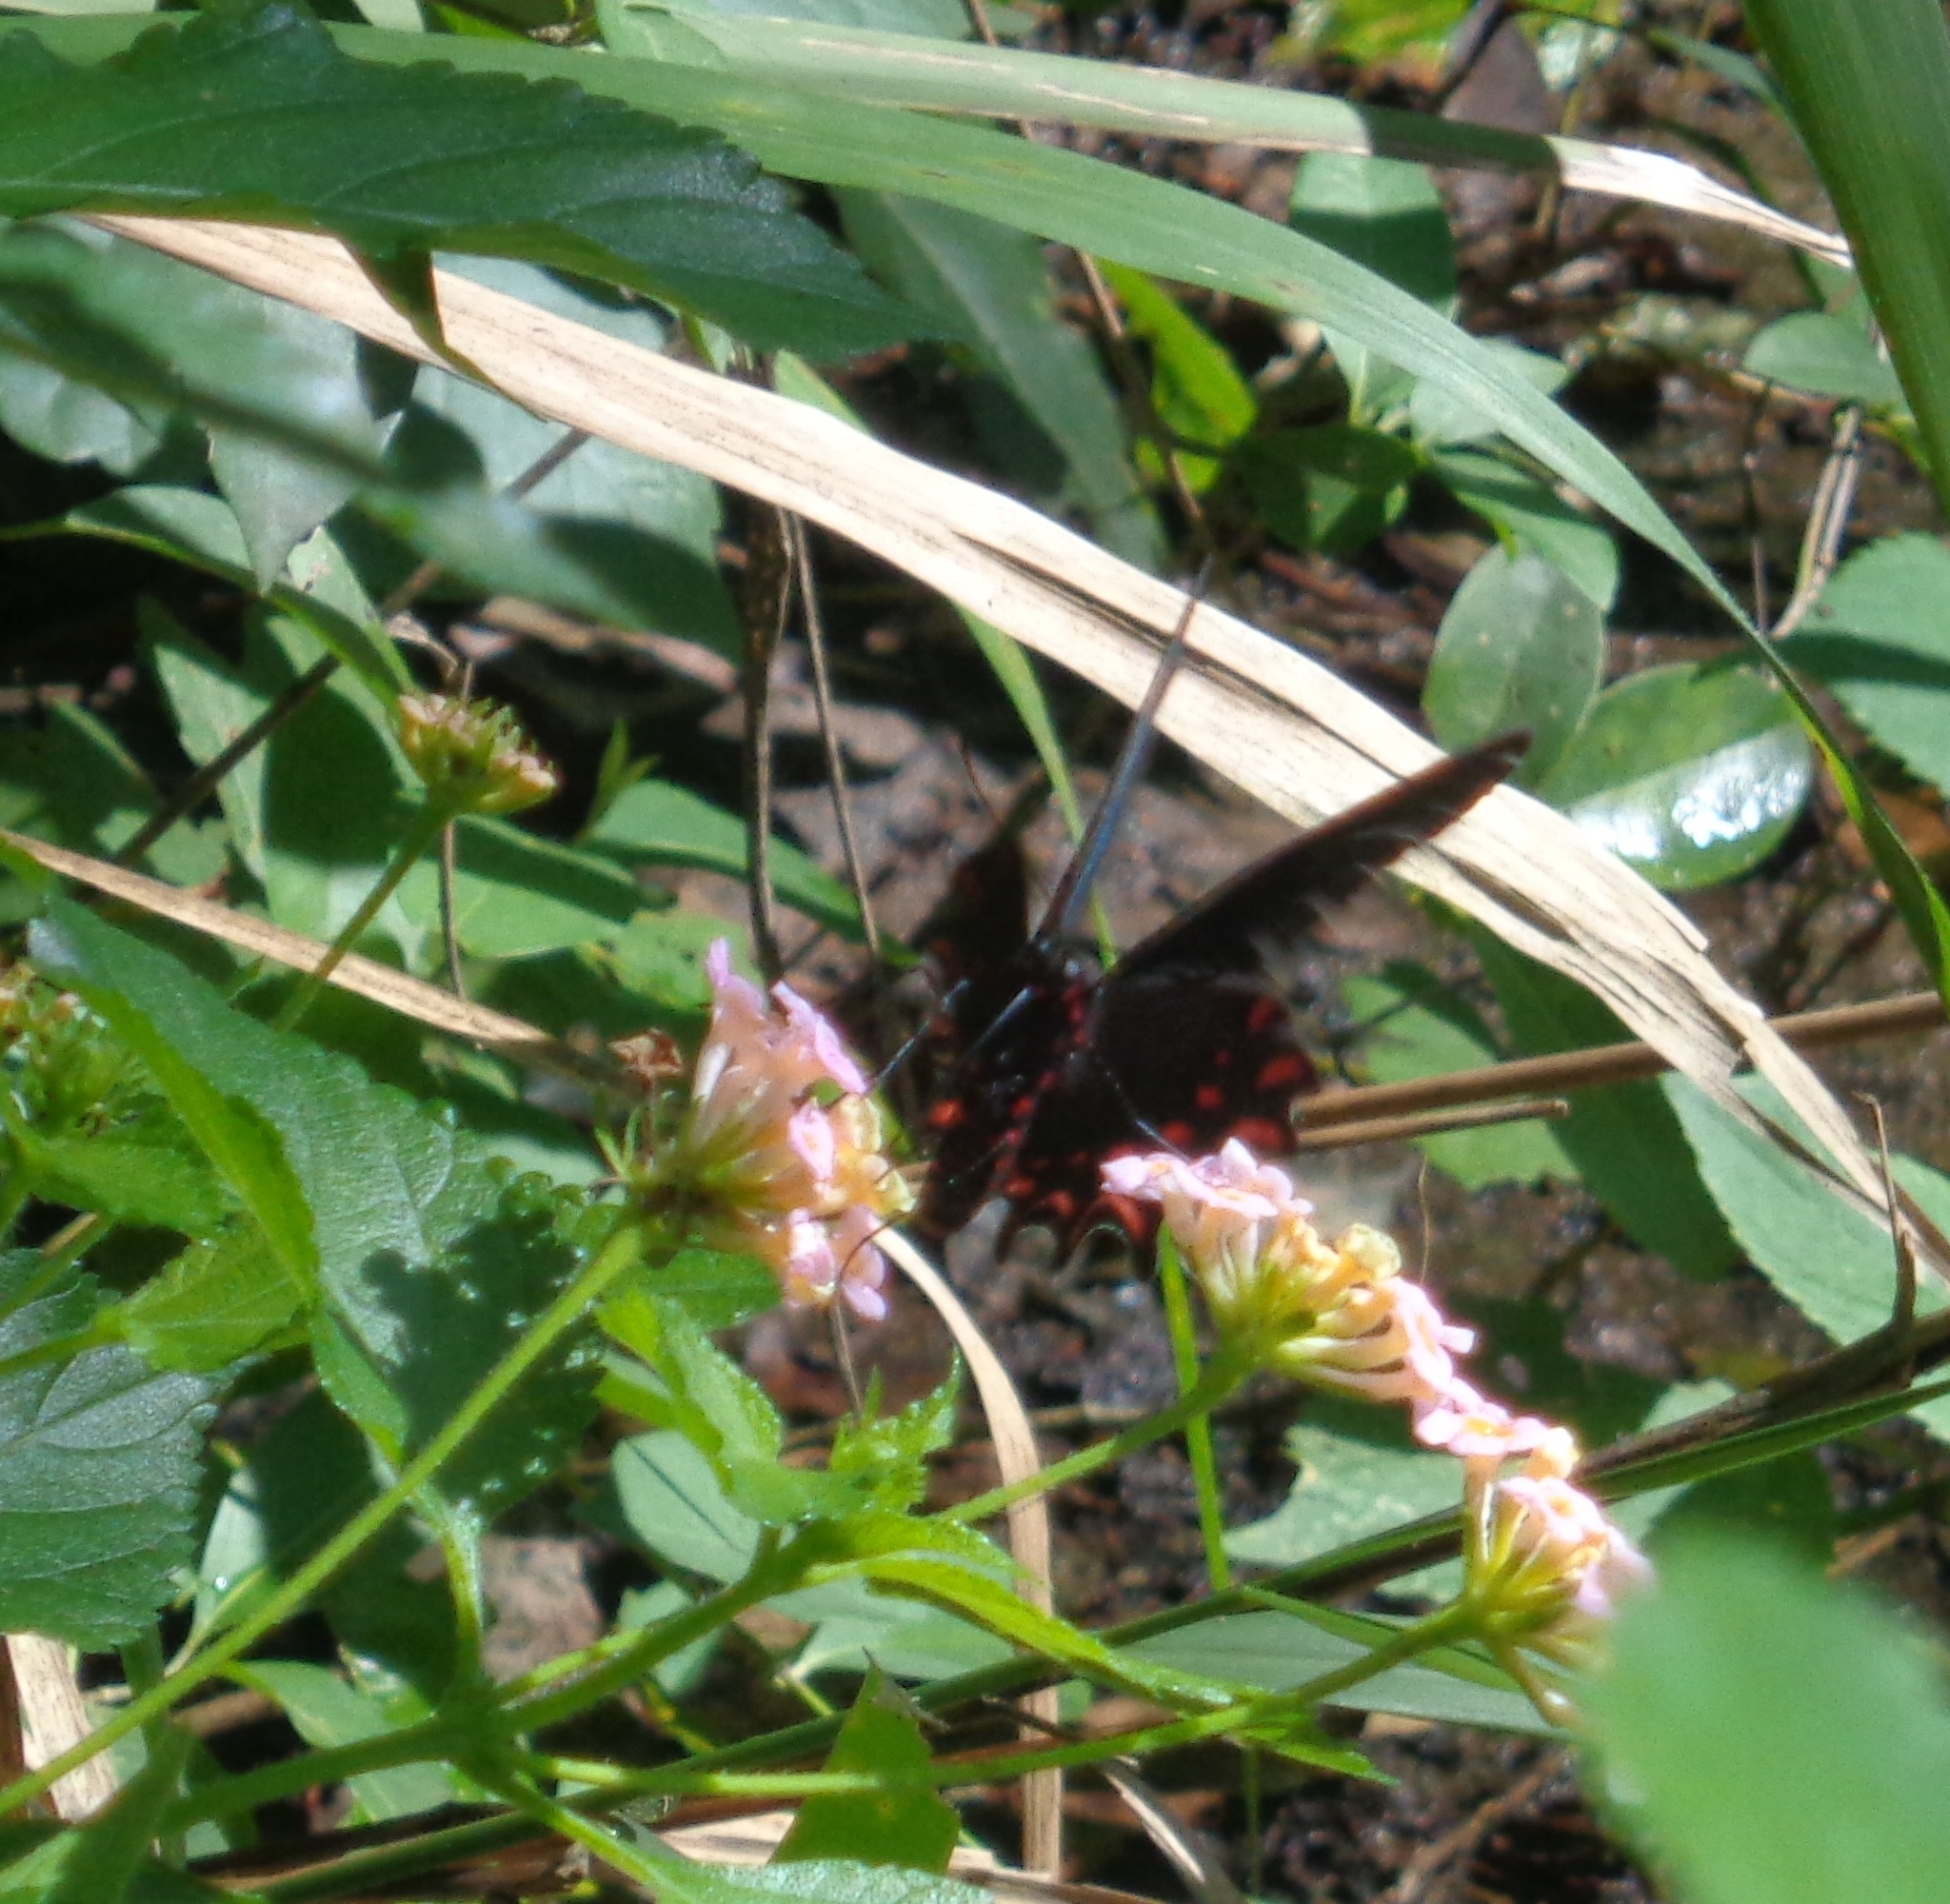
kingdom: Animalia
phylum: Arthropoda
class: Insecta
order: Lepidoptera
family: Papilionidae
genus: Parides
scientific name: Parides photinus
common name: Pink-spotted cattleheart
